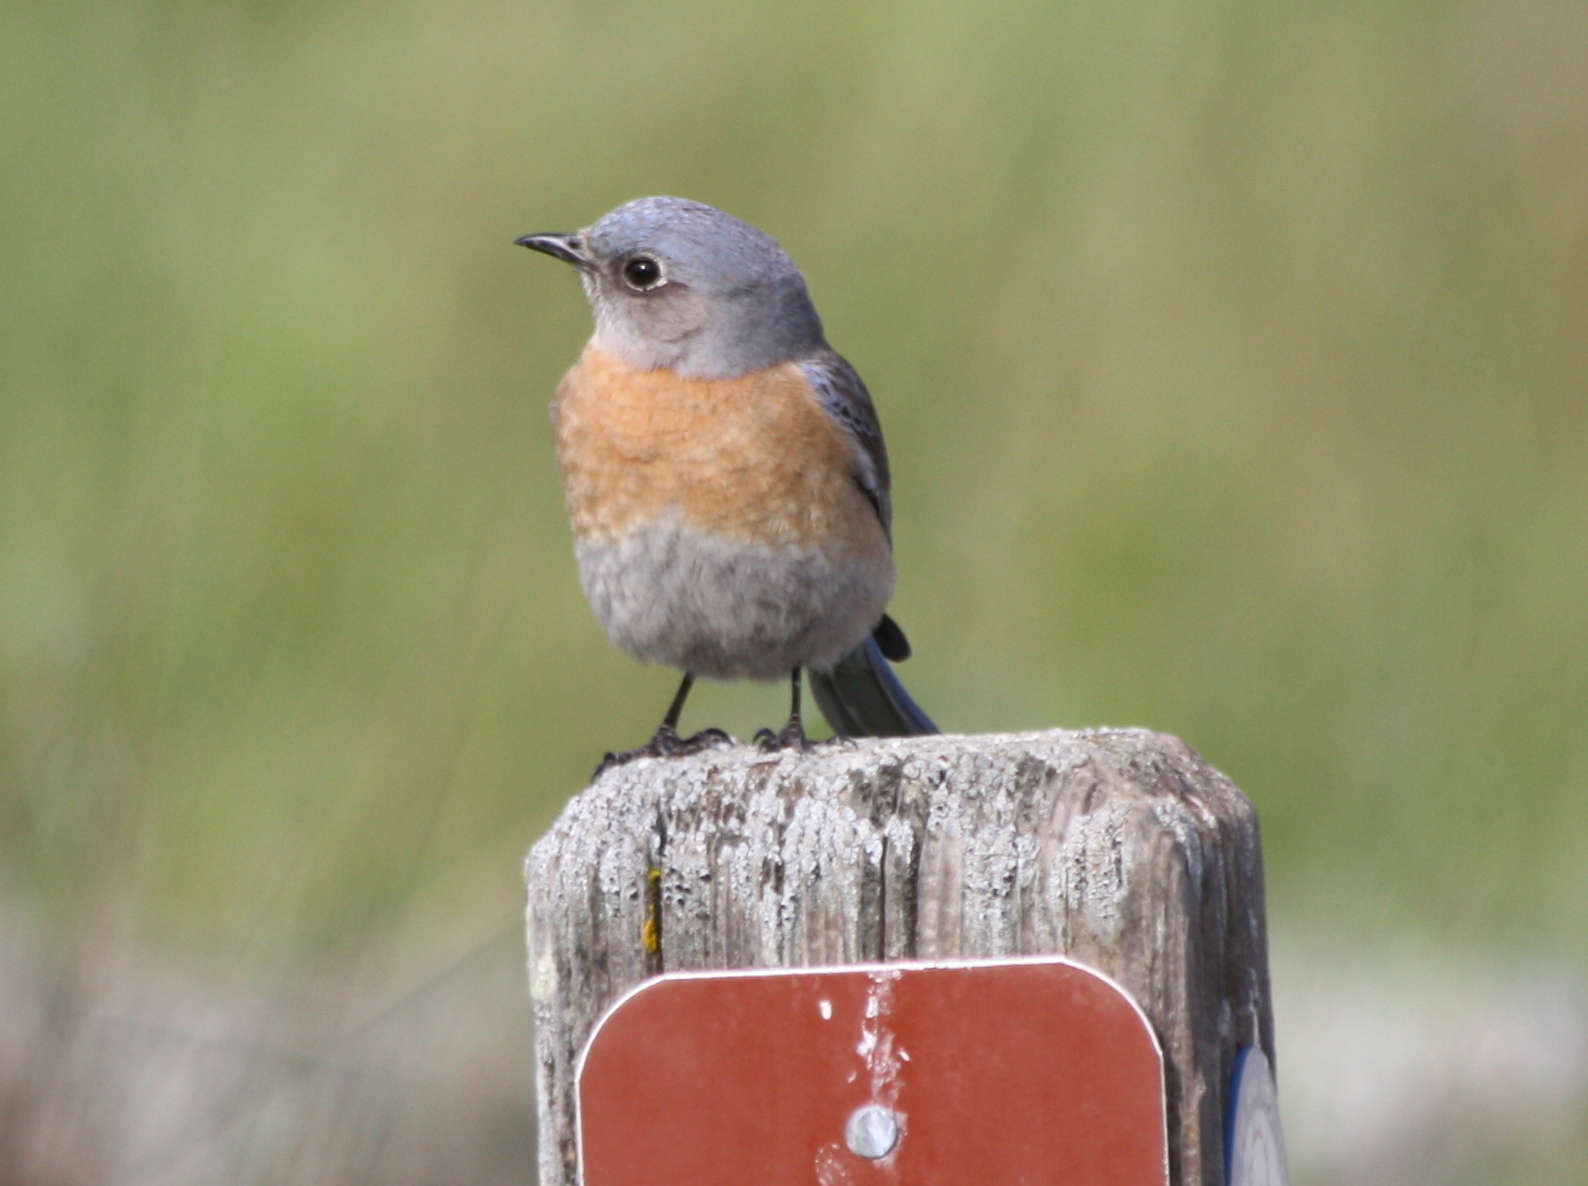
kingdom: Animalia
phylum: Chordata
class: Aves
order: Passeriformes
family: Turdidae
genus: Sialia
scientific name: Sialia mexicana
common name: Western bluebird
